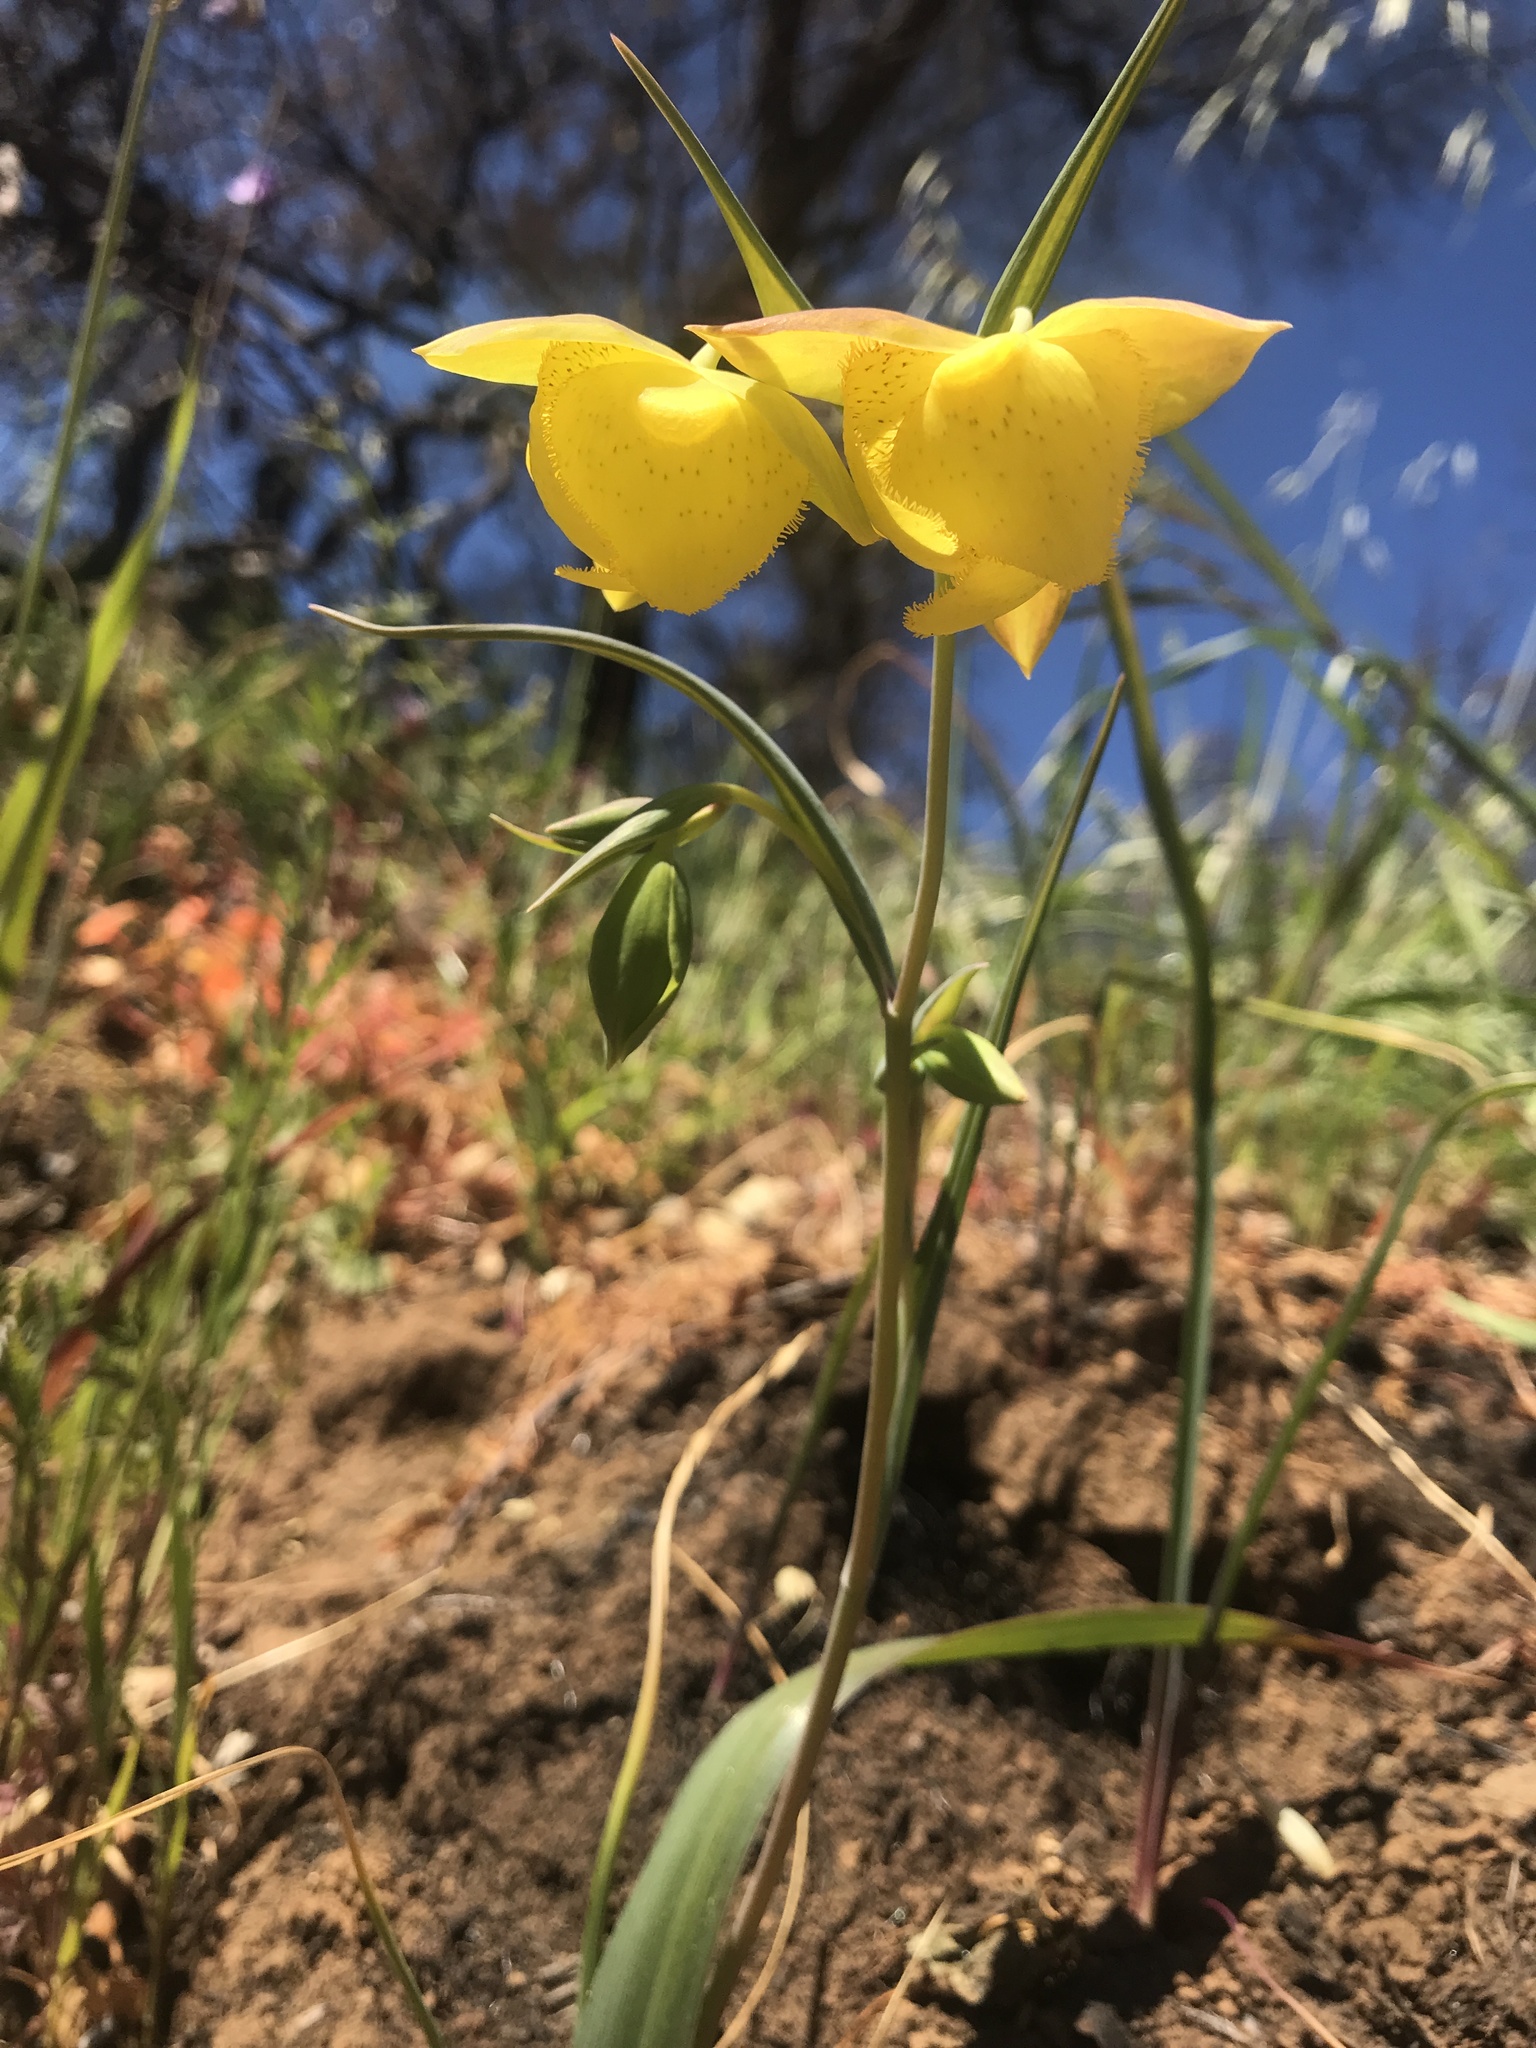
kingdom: Plantae
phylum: Tracheophyta
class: Liliopsida
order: Liliales
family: Liliaceae
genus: Calochortus
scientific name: Calochortus pulchellus
